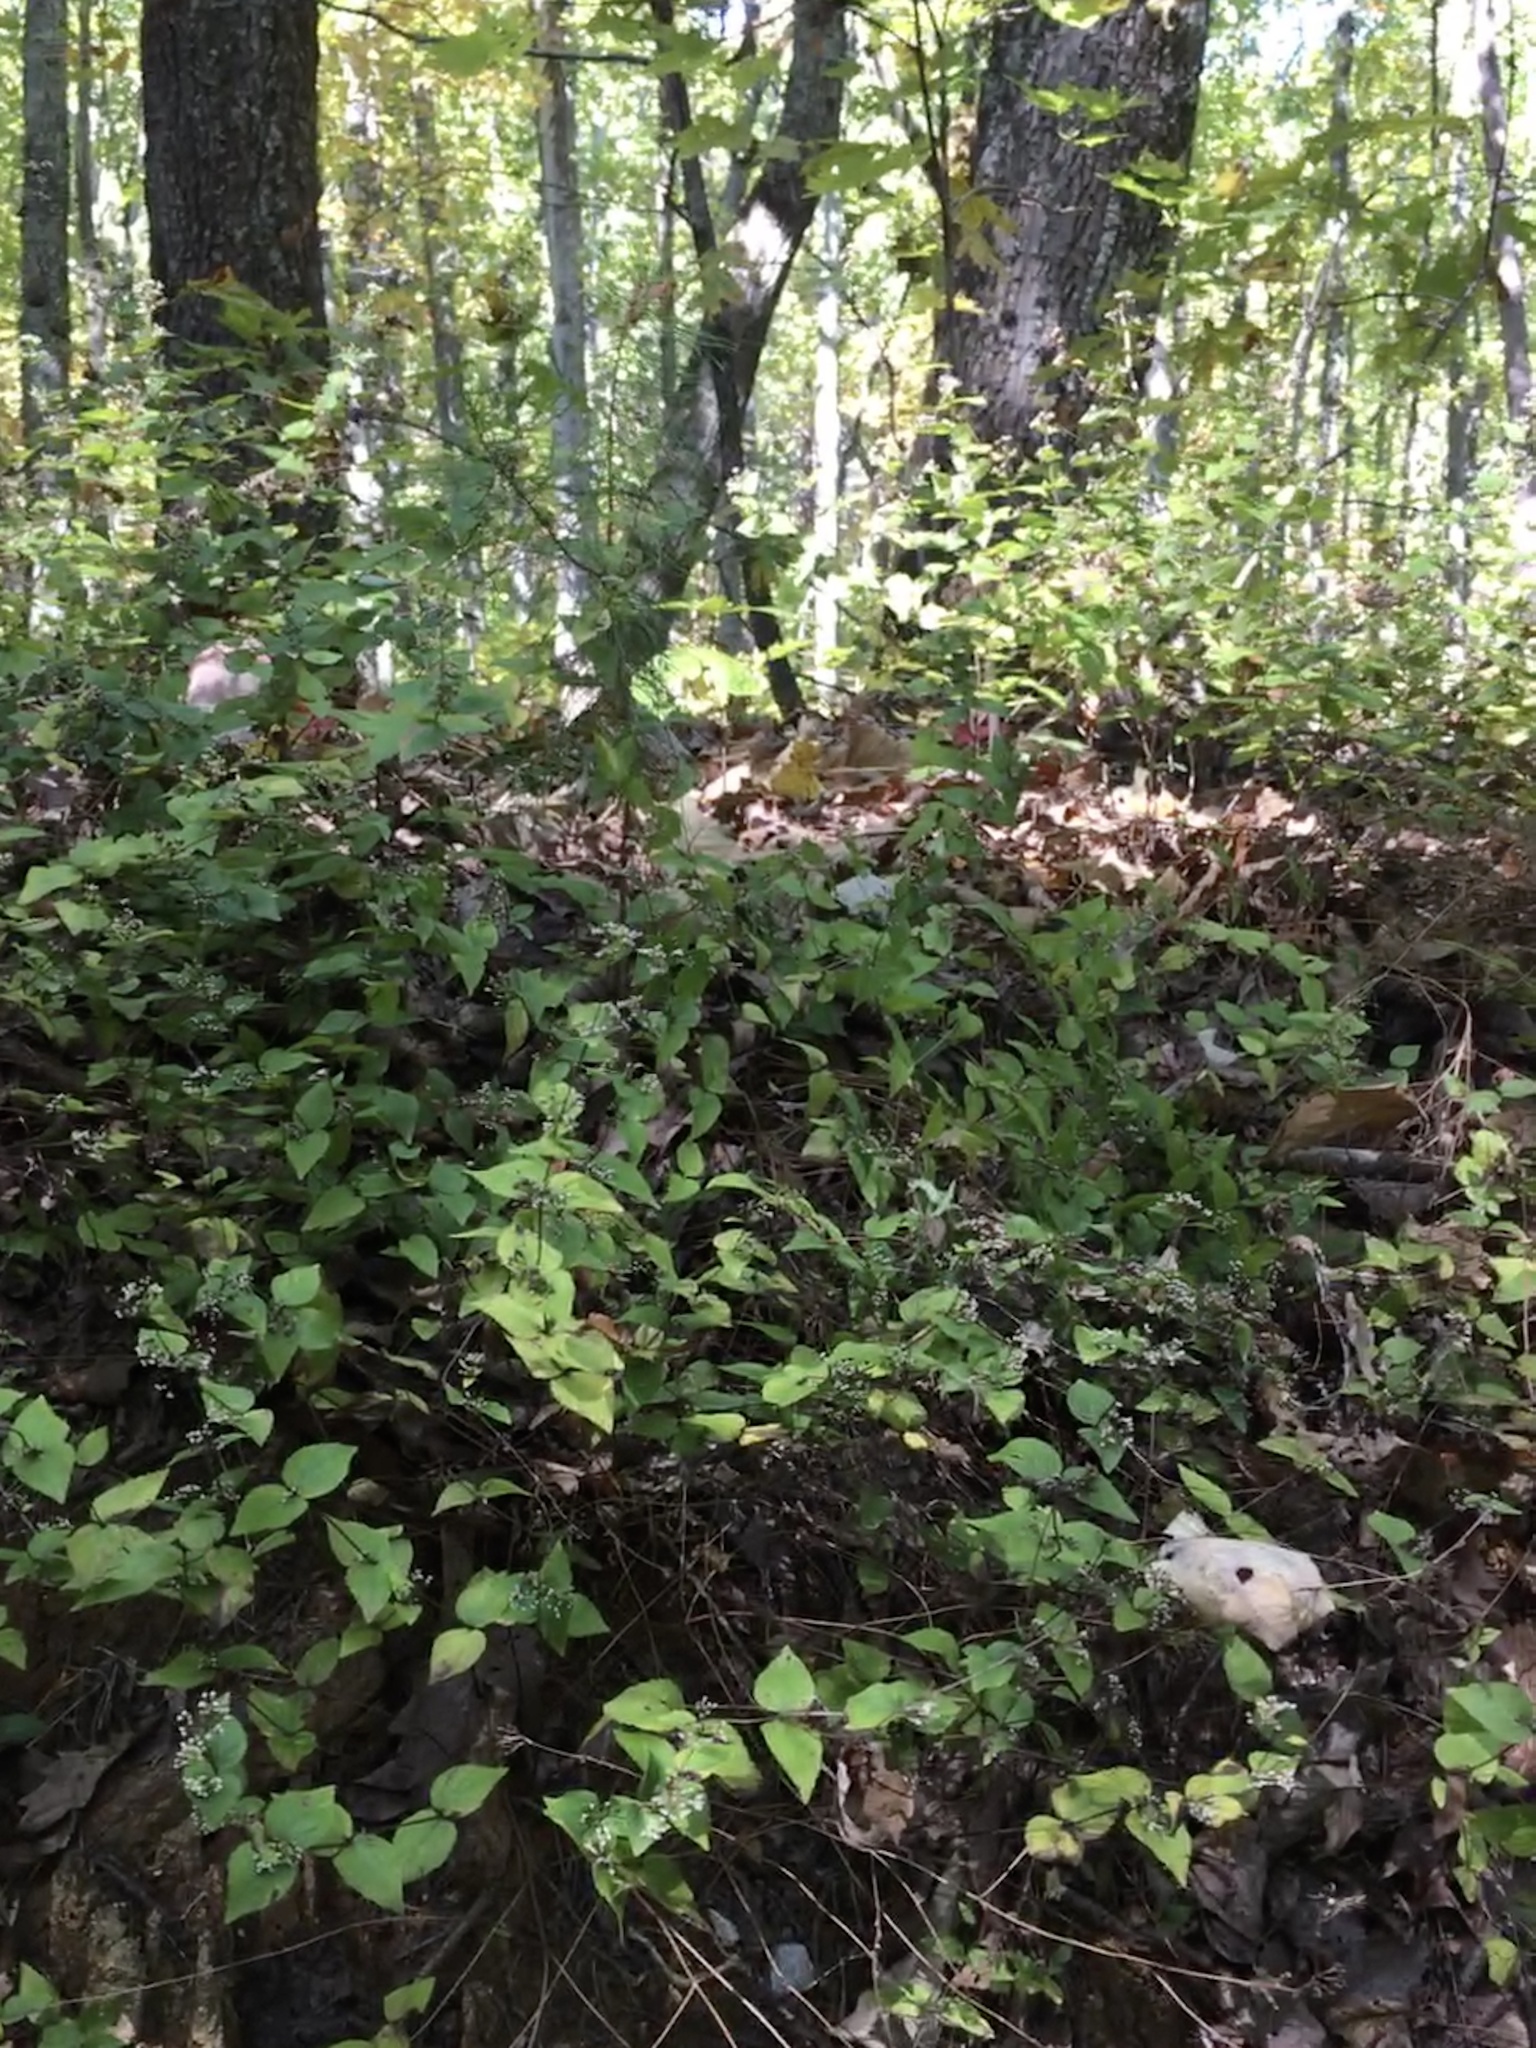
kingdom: Plantae
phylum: Tracheophyta
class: Magnoliopsida
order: Lamiales
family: Lamiaceae
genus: Cunila
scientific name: Cunila origanoides
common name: American dittany
